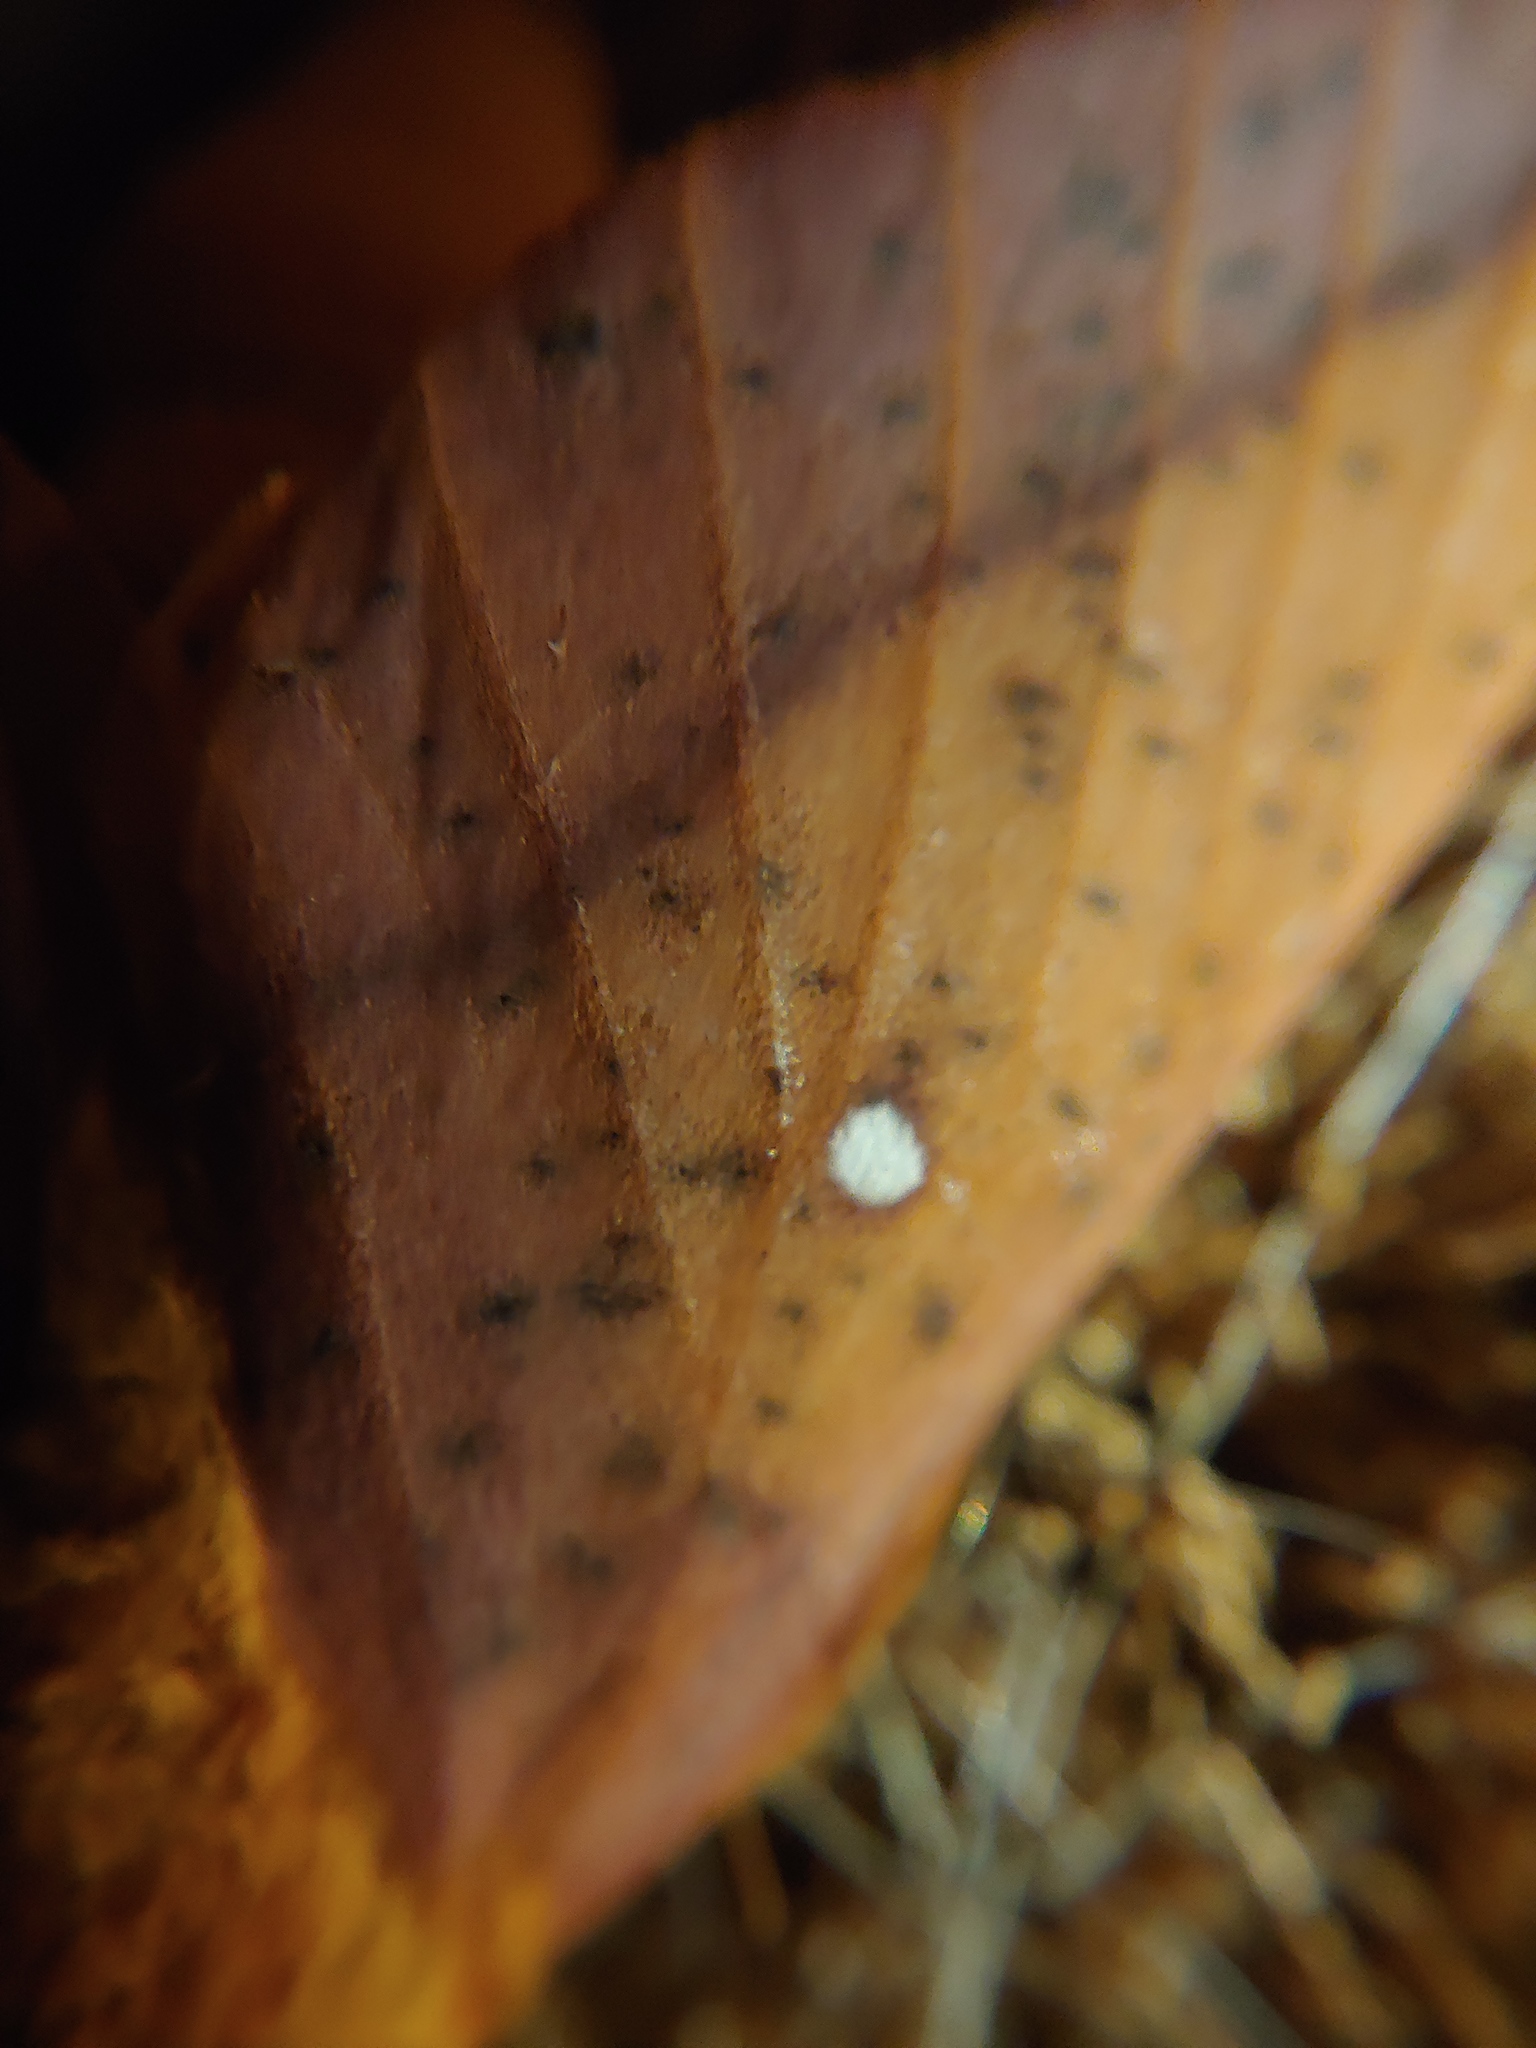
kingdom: Animalia
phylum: Arthropoda
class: Insecta
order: Lepidoptera
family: Saturniidae
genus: Anisota
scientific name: Anisota senatoria
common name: Orange-striped oakworm moth
